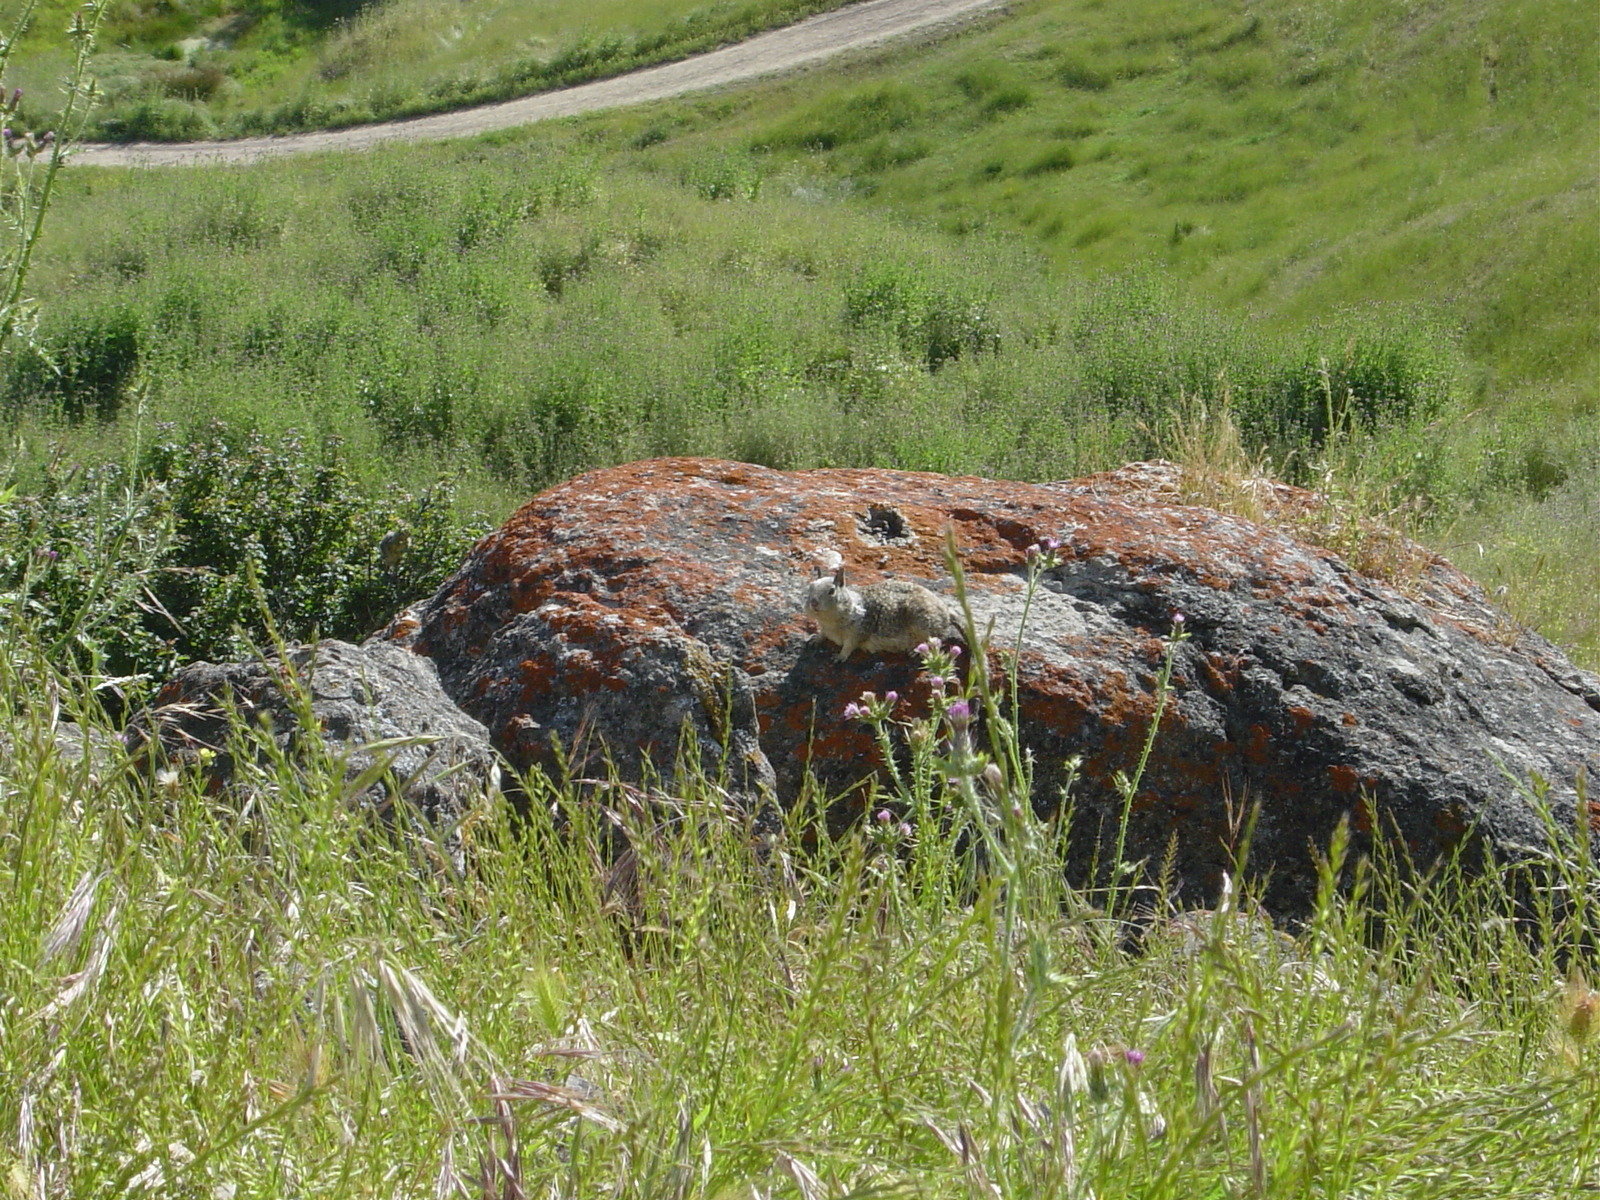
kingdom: Animalia
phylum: Chordata
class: Mammalia
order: Rodentia
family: Sciuridae
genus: Otospermophilus
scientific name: Otospermophilus beecheyi
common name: California ground squirrel
